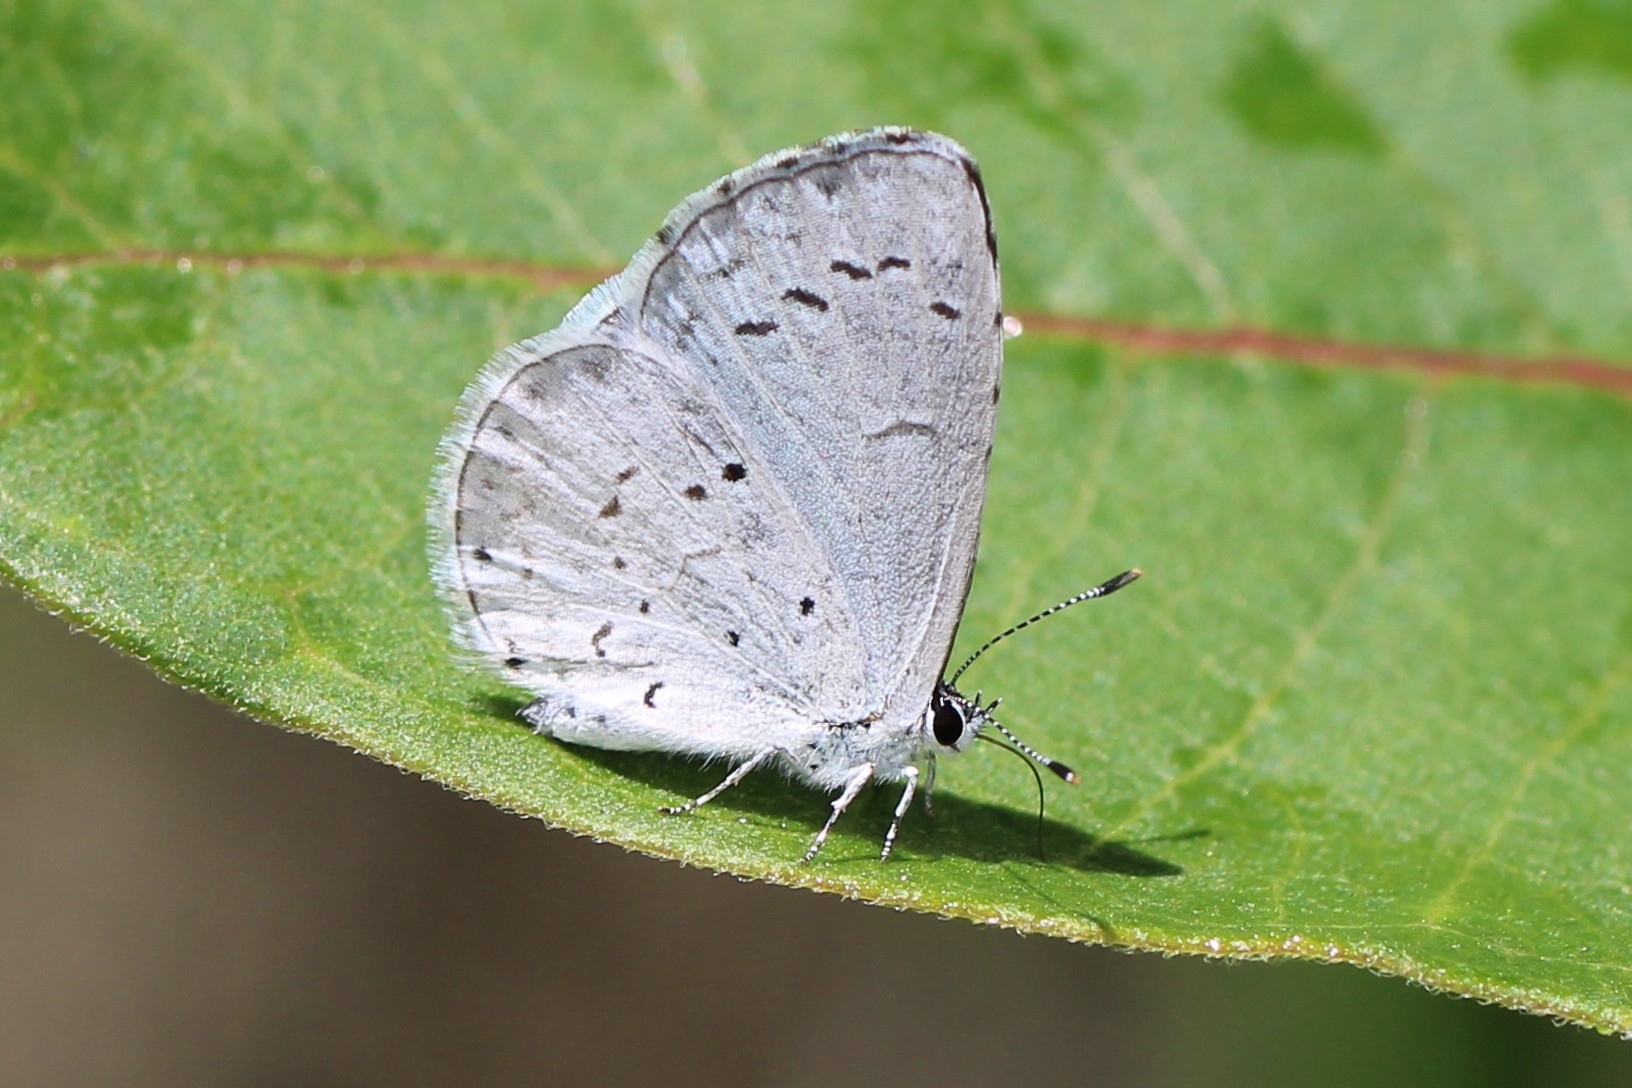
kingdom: Animalia
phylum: Arthropoda
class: Insecta
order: Lepidoptera
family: Lycaenidae
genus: Cyaniris
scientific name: Cyaniris neglecta
